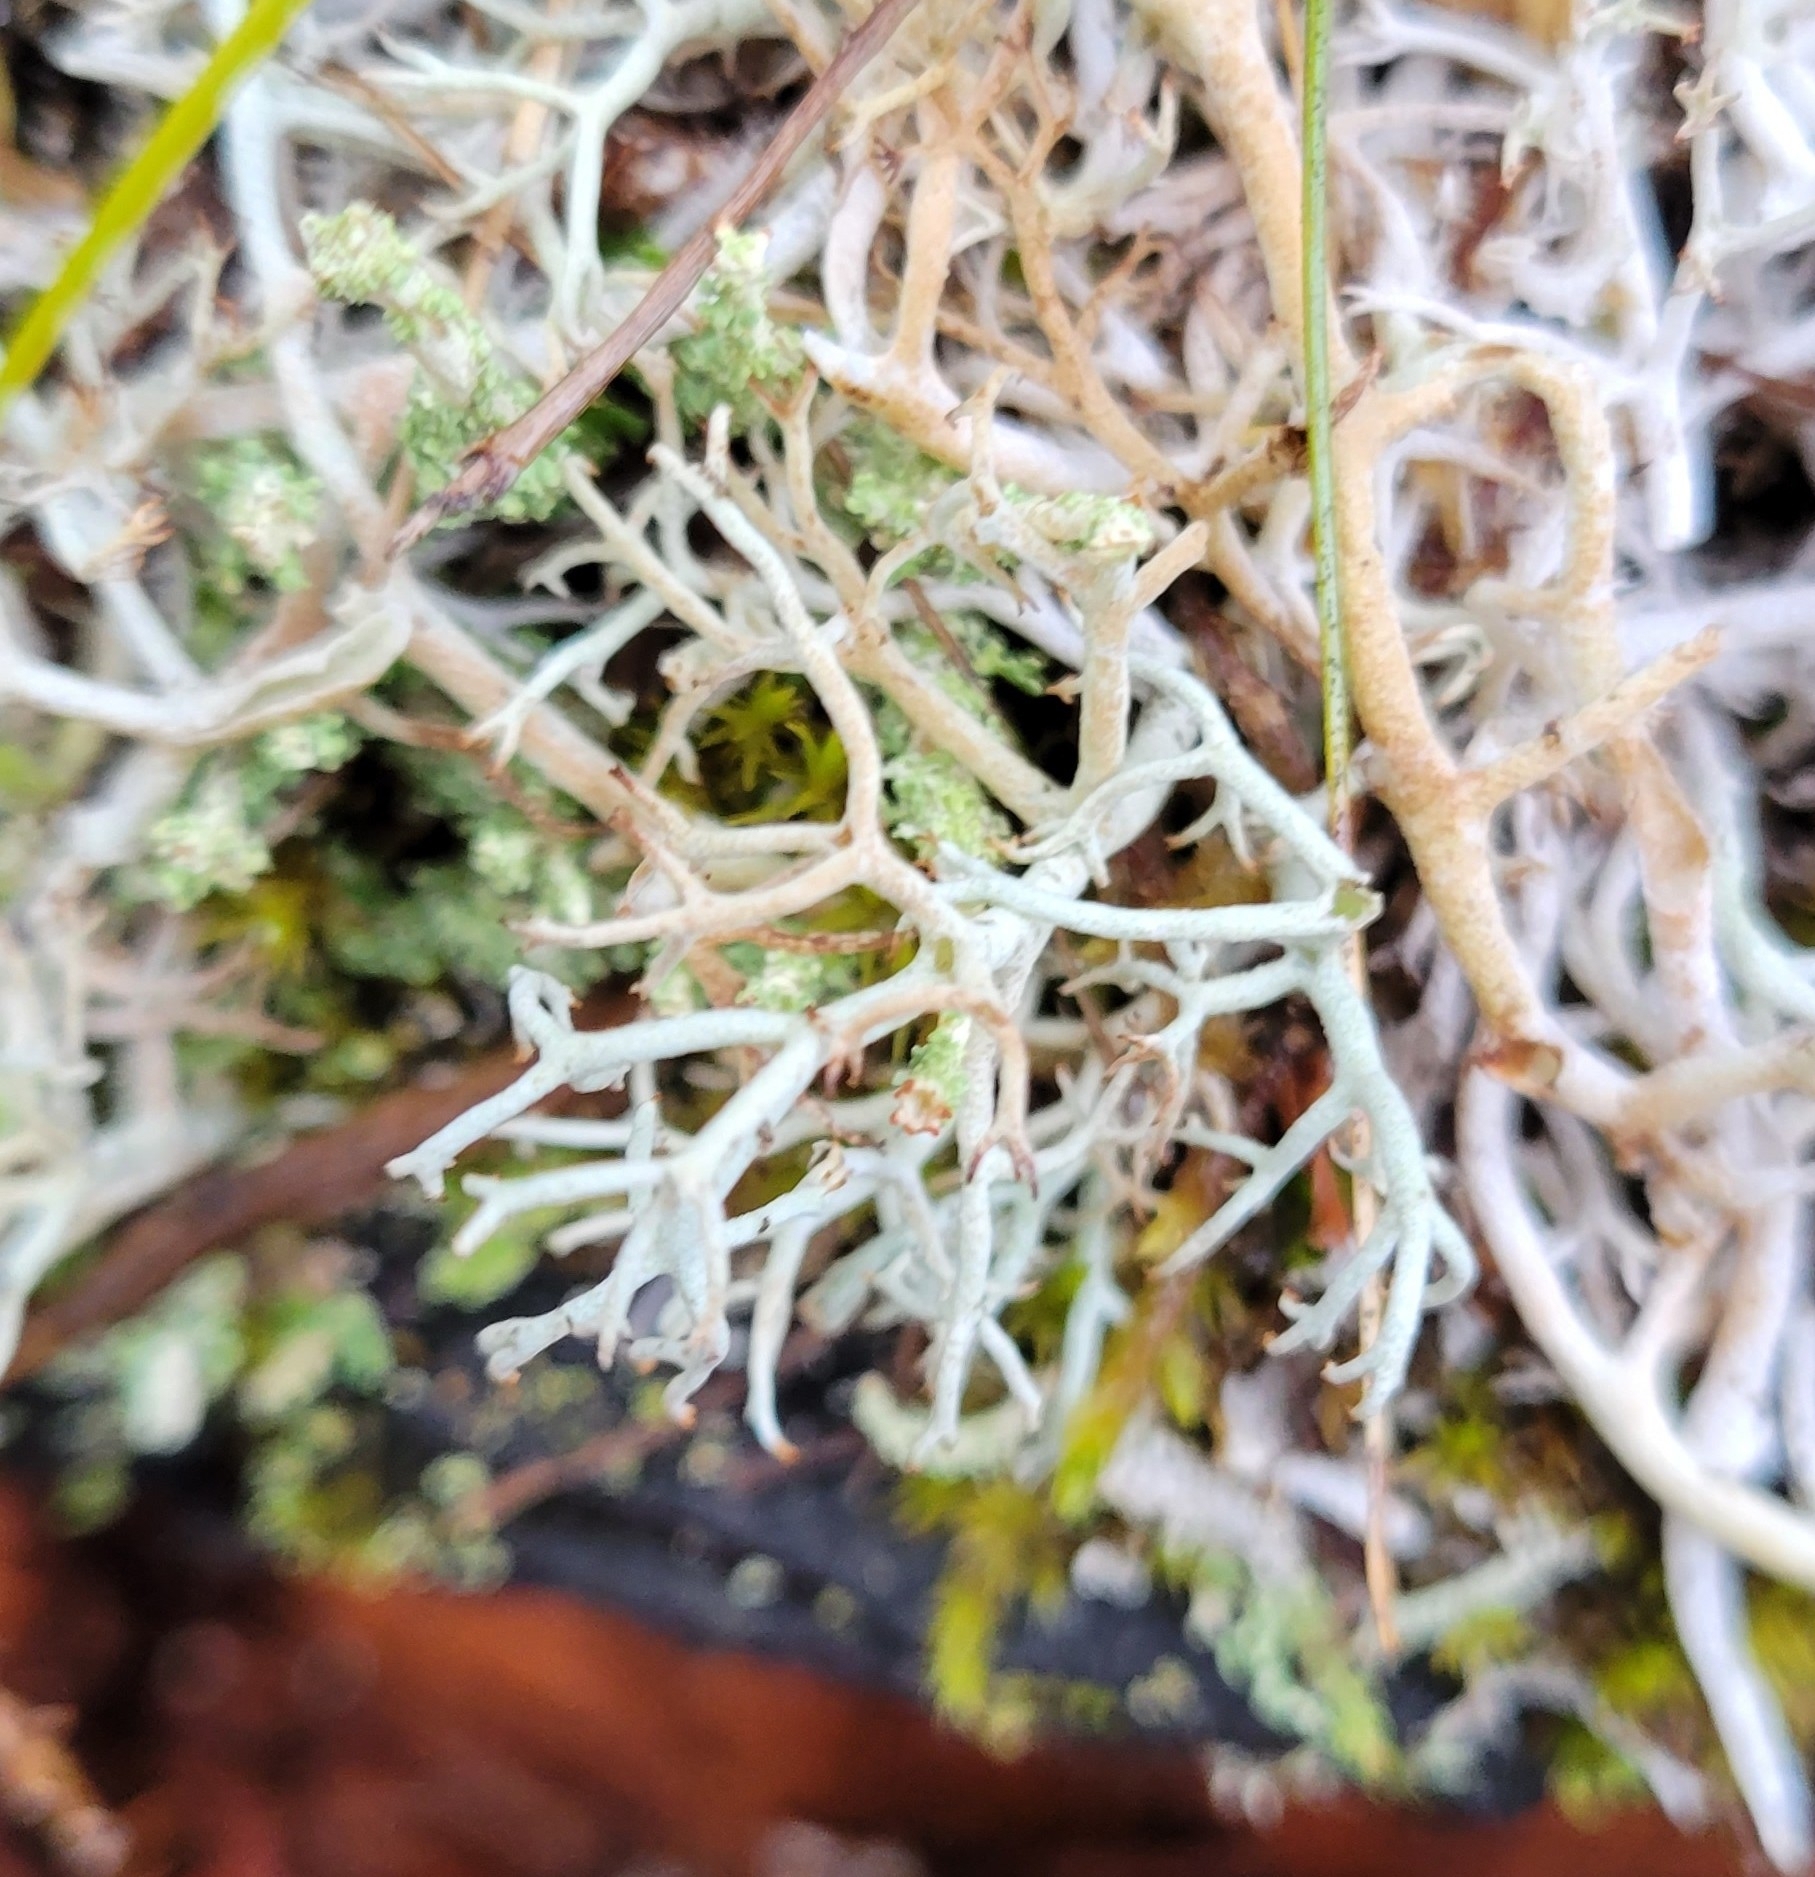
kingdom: Fungi
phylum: Ascomycota
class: Lecanoromycetes
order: Lecanorales
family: Cladoniaceae
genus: Cladonia
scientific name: Cladonia rangiferina
